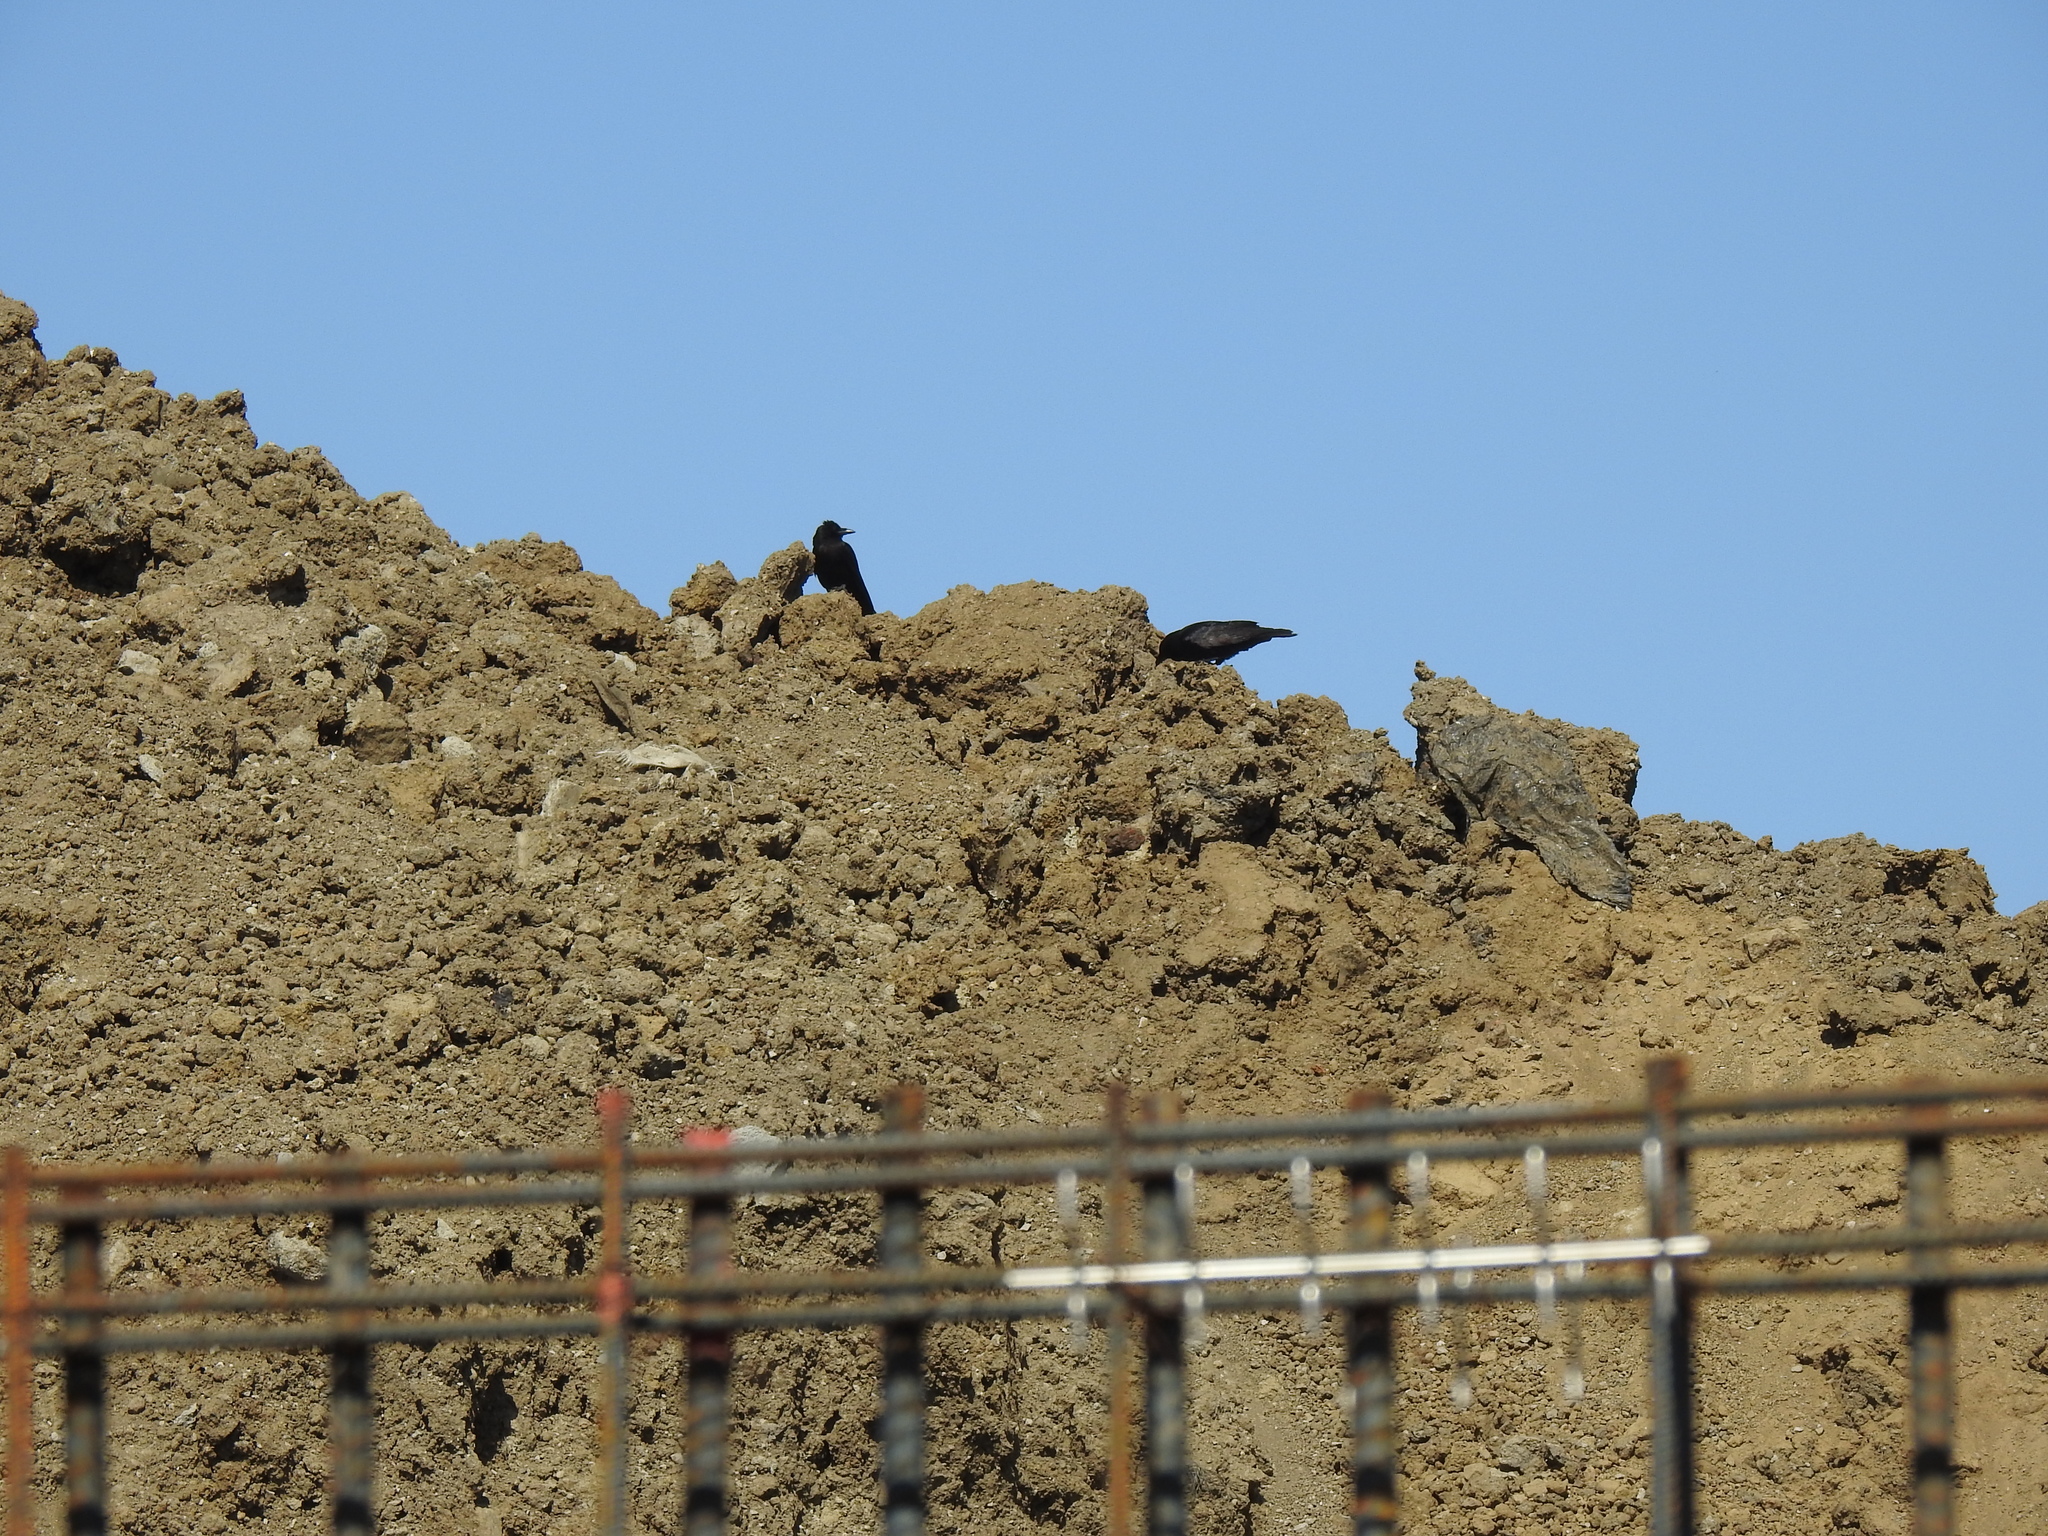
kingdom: Animalia
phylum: Chordata
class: Aves
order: Passeriformes
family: Corvidae
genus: Corvus
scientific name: Corvus brachyrhynchos
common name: American crow
